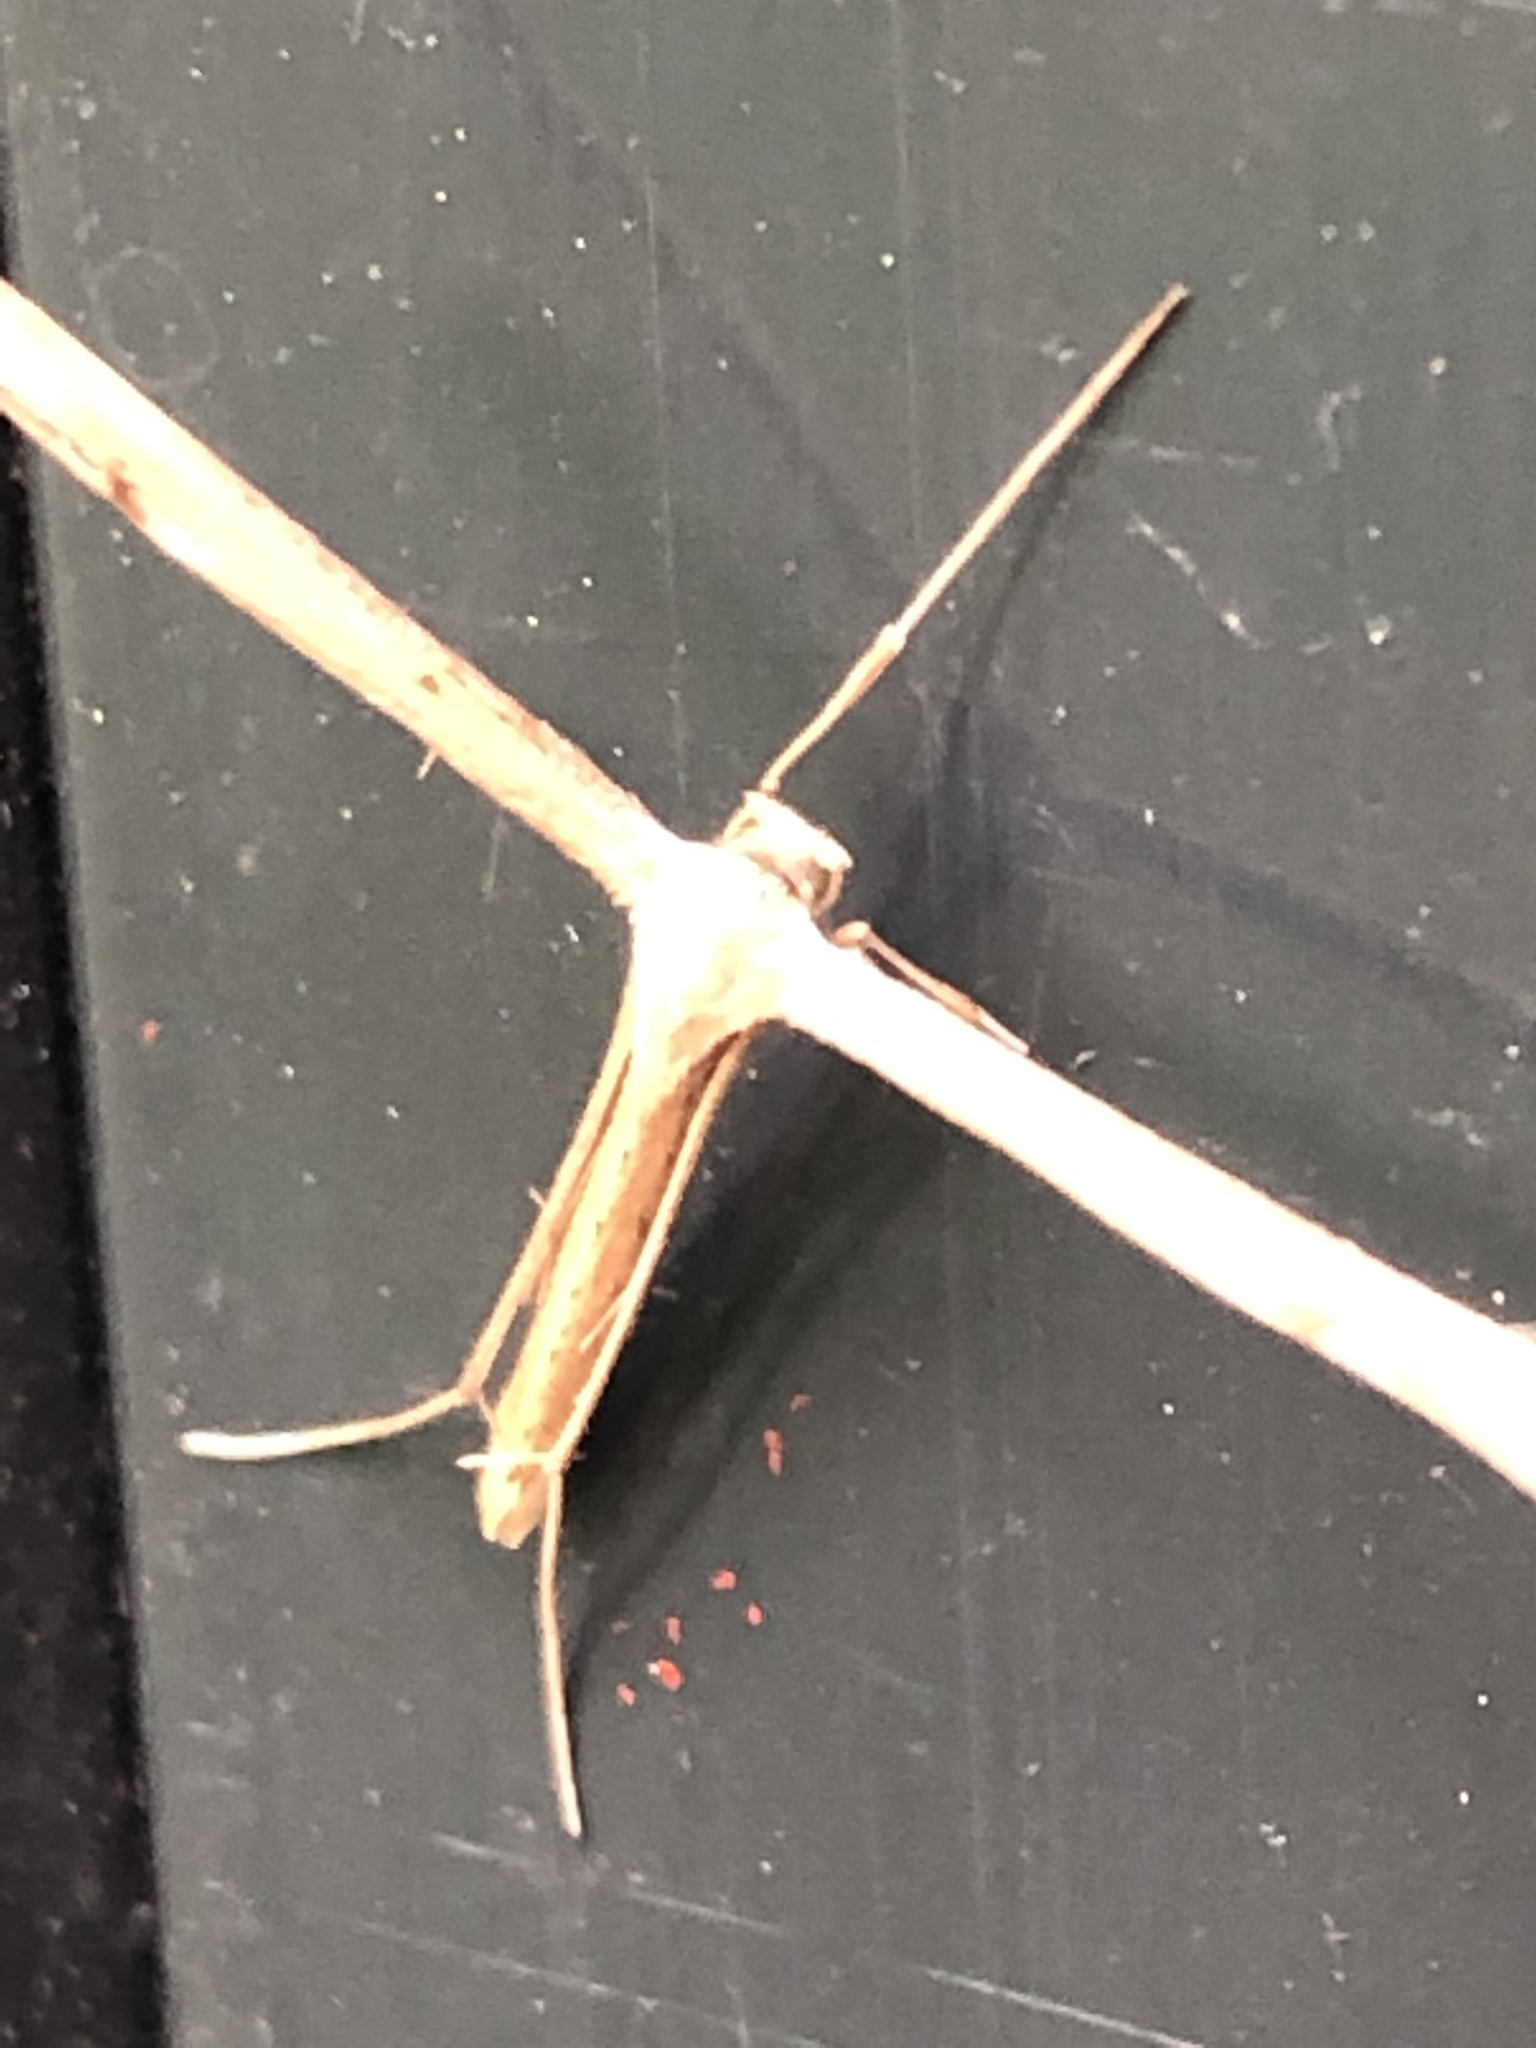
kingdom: Animalia
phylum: Arthropoda
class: Insecta
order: Lepidoptera
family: Pterophoridae
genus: Emmelina
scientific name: Emmelina monodactyla
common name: Common plume
